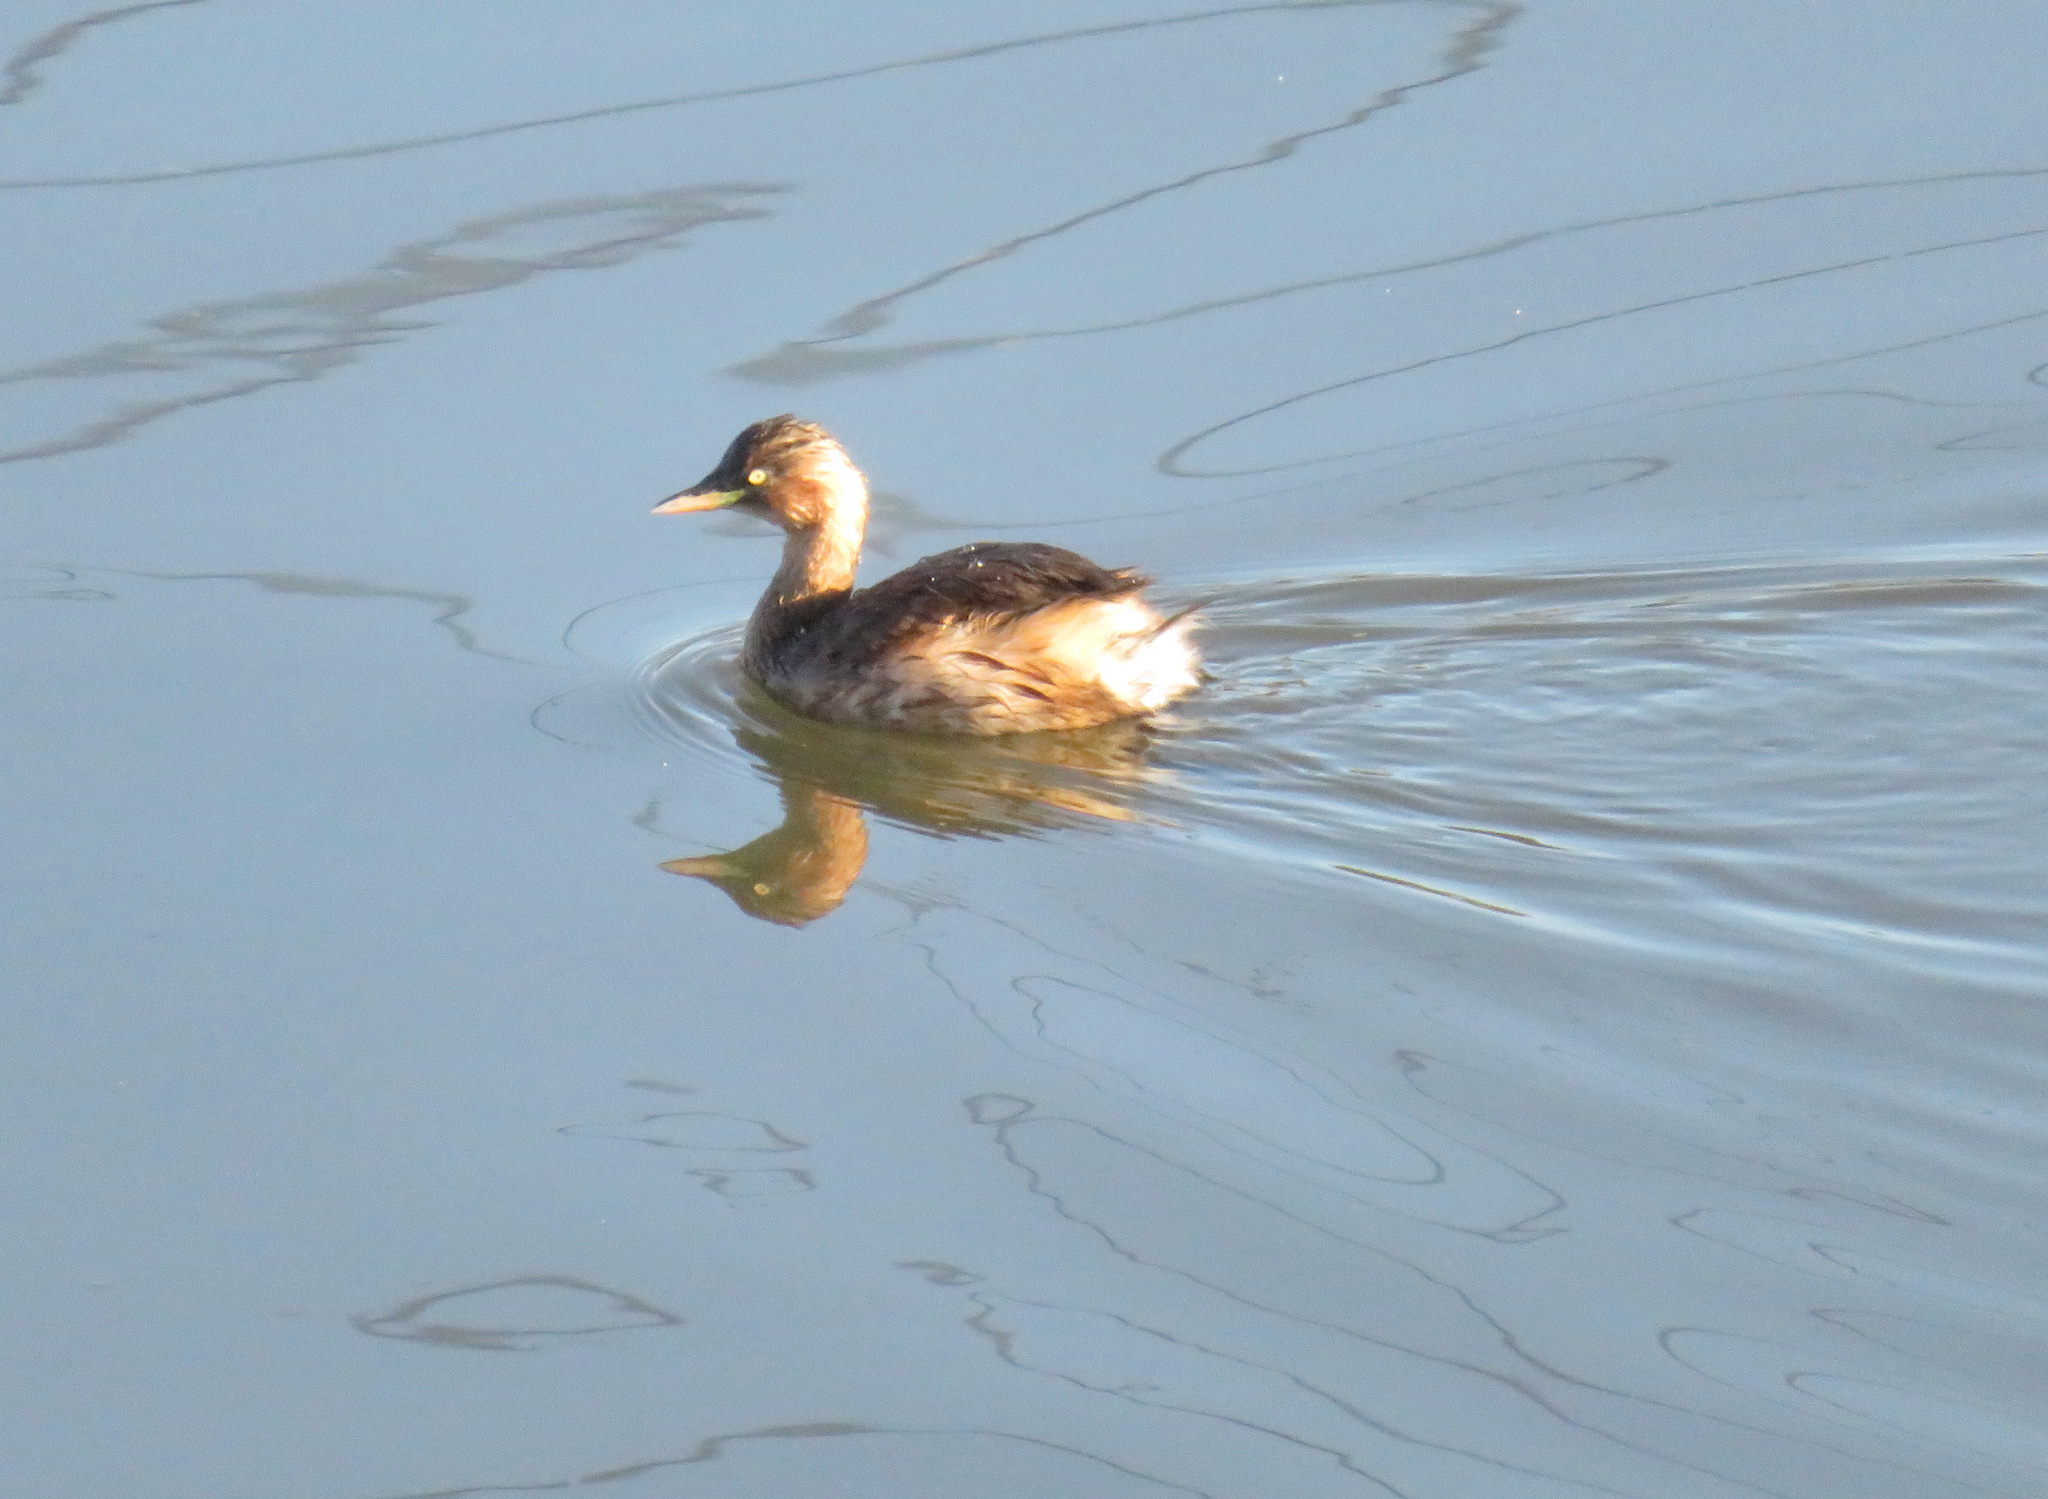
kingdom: Animalia
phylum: Chordata
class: Aves
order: Podicipediformes
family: Podicipedidae
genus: Tachybaptus
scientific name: Tachybaptus ruficollis
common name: Little grebe
